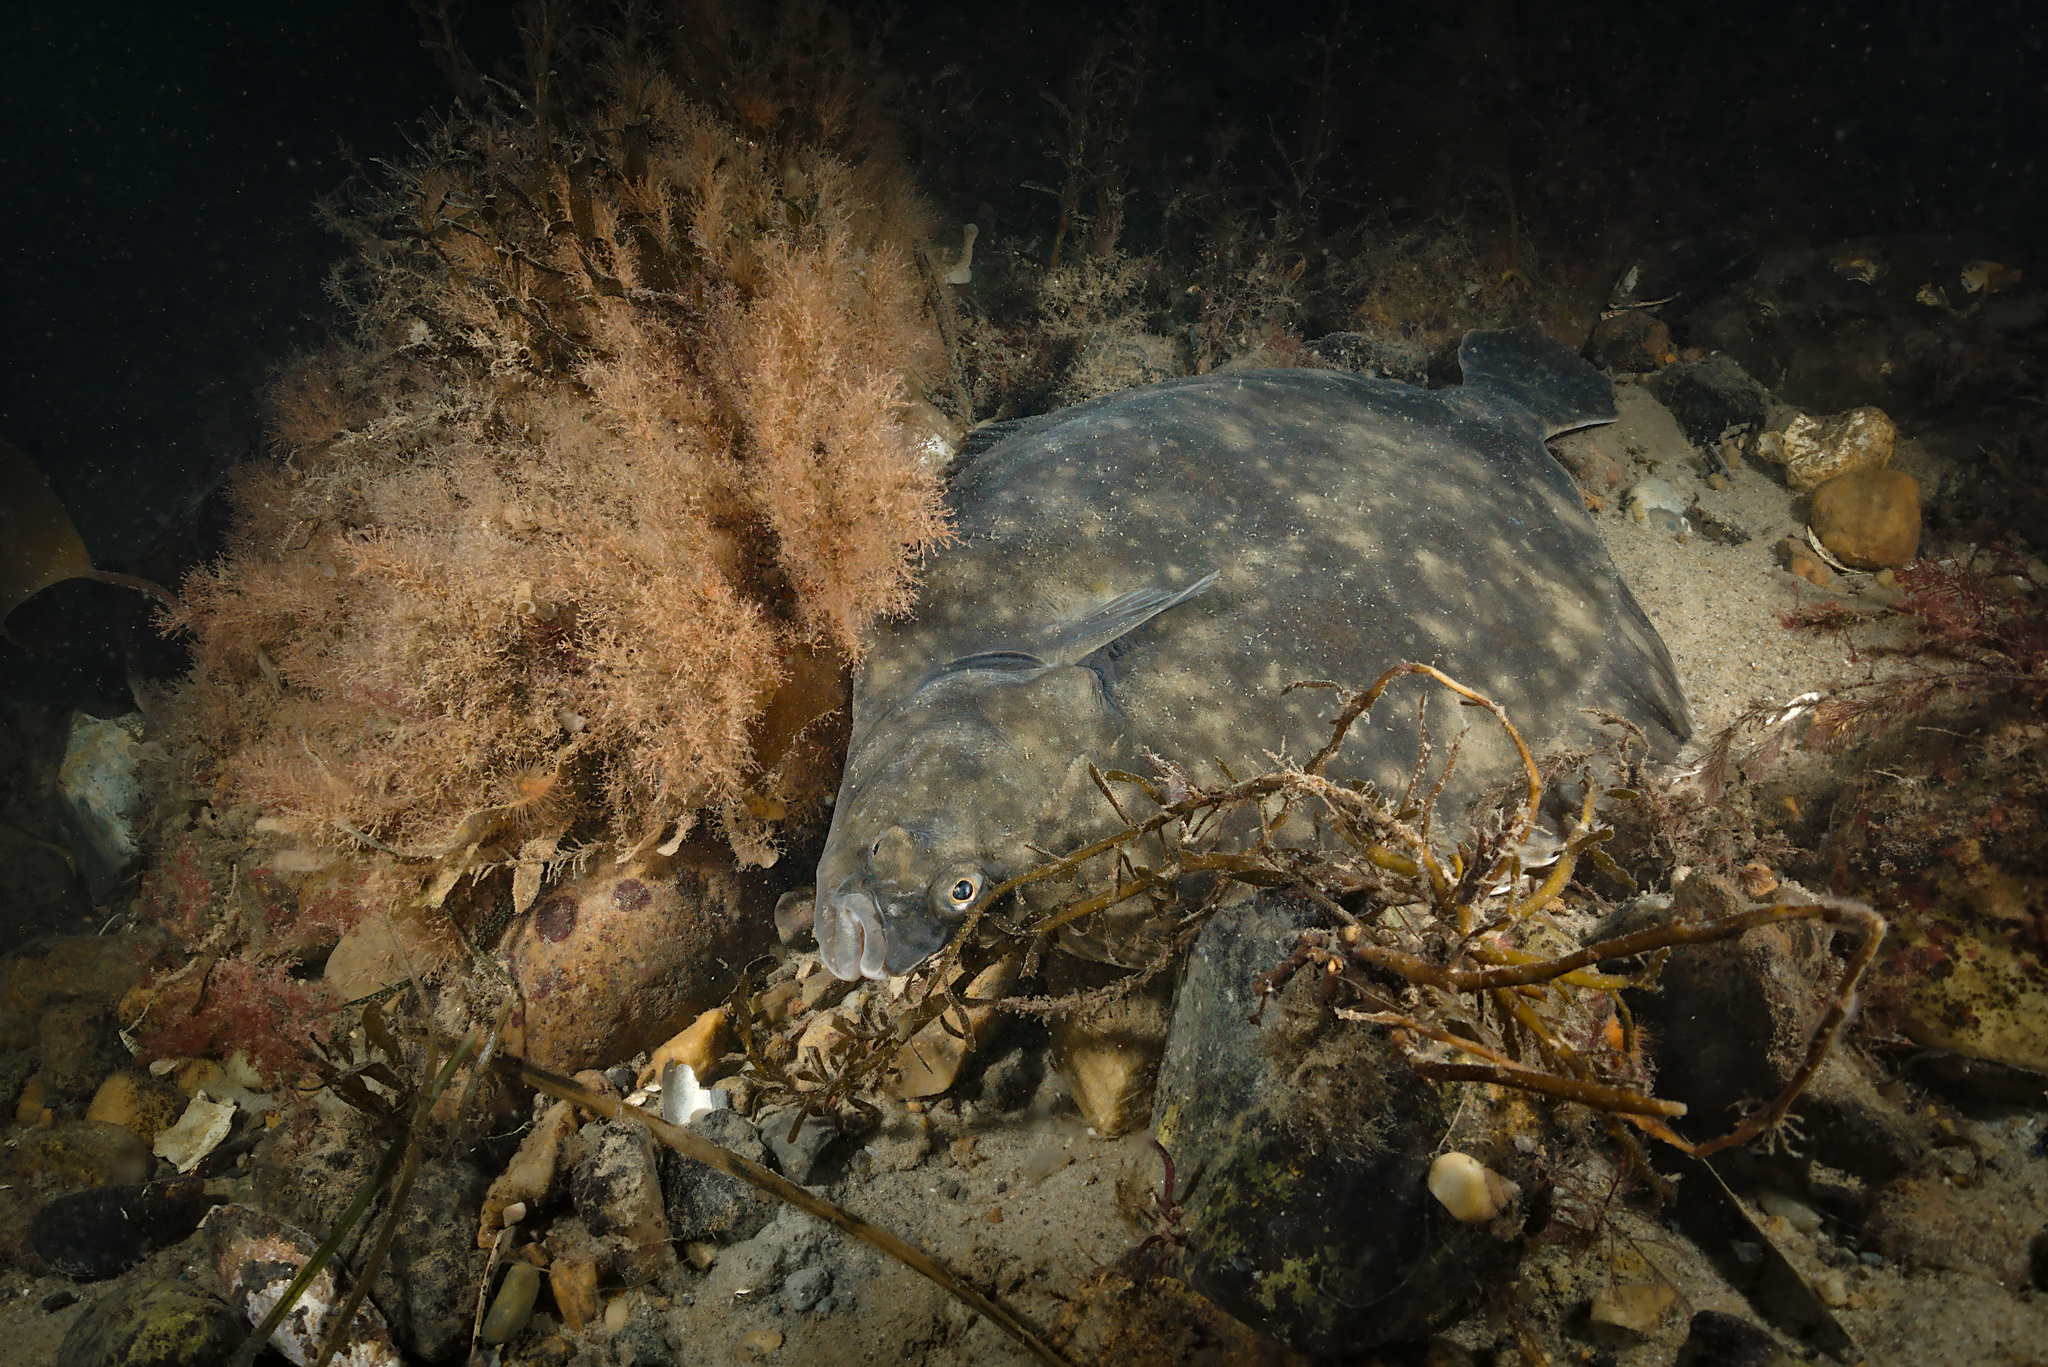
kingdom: Animalia
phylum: Chordata
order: Pleuronectiformes
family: Pleuronectidae
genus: Platichthys
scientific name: Platichthys flesus
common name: European flounder
